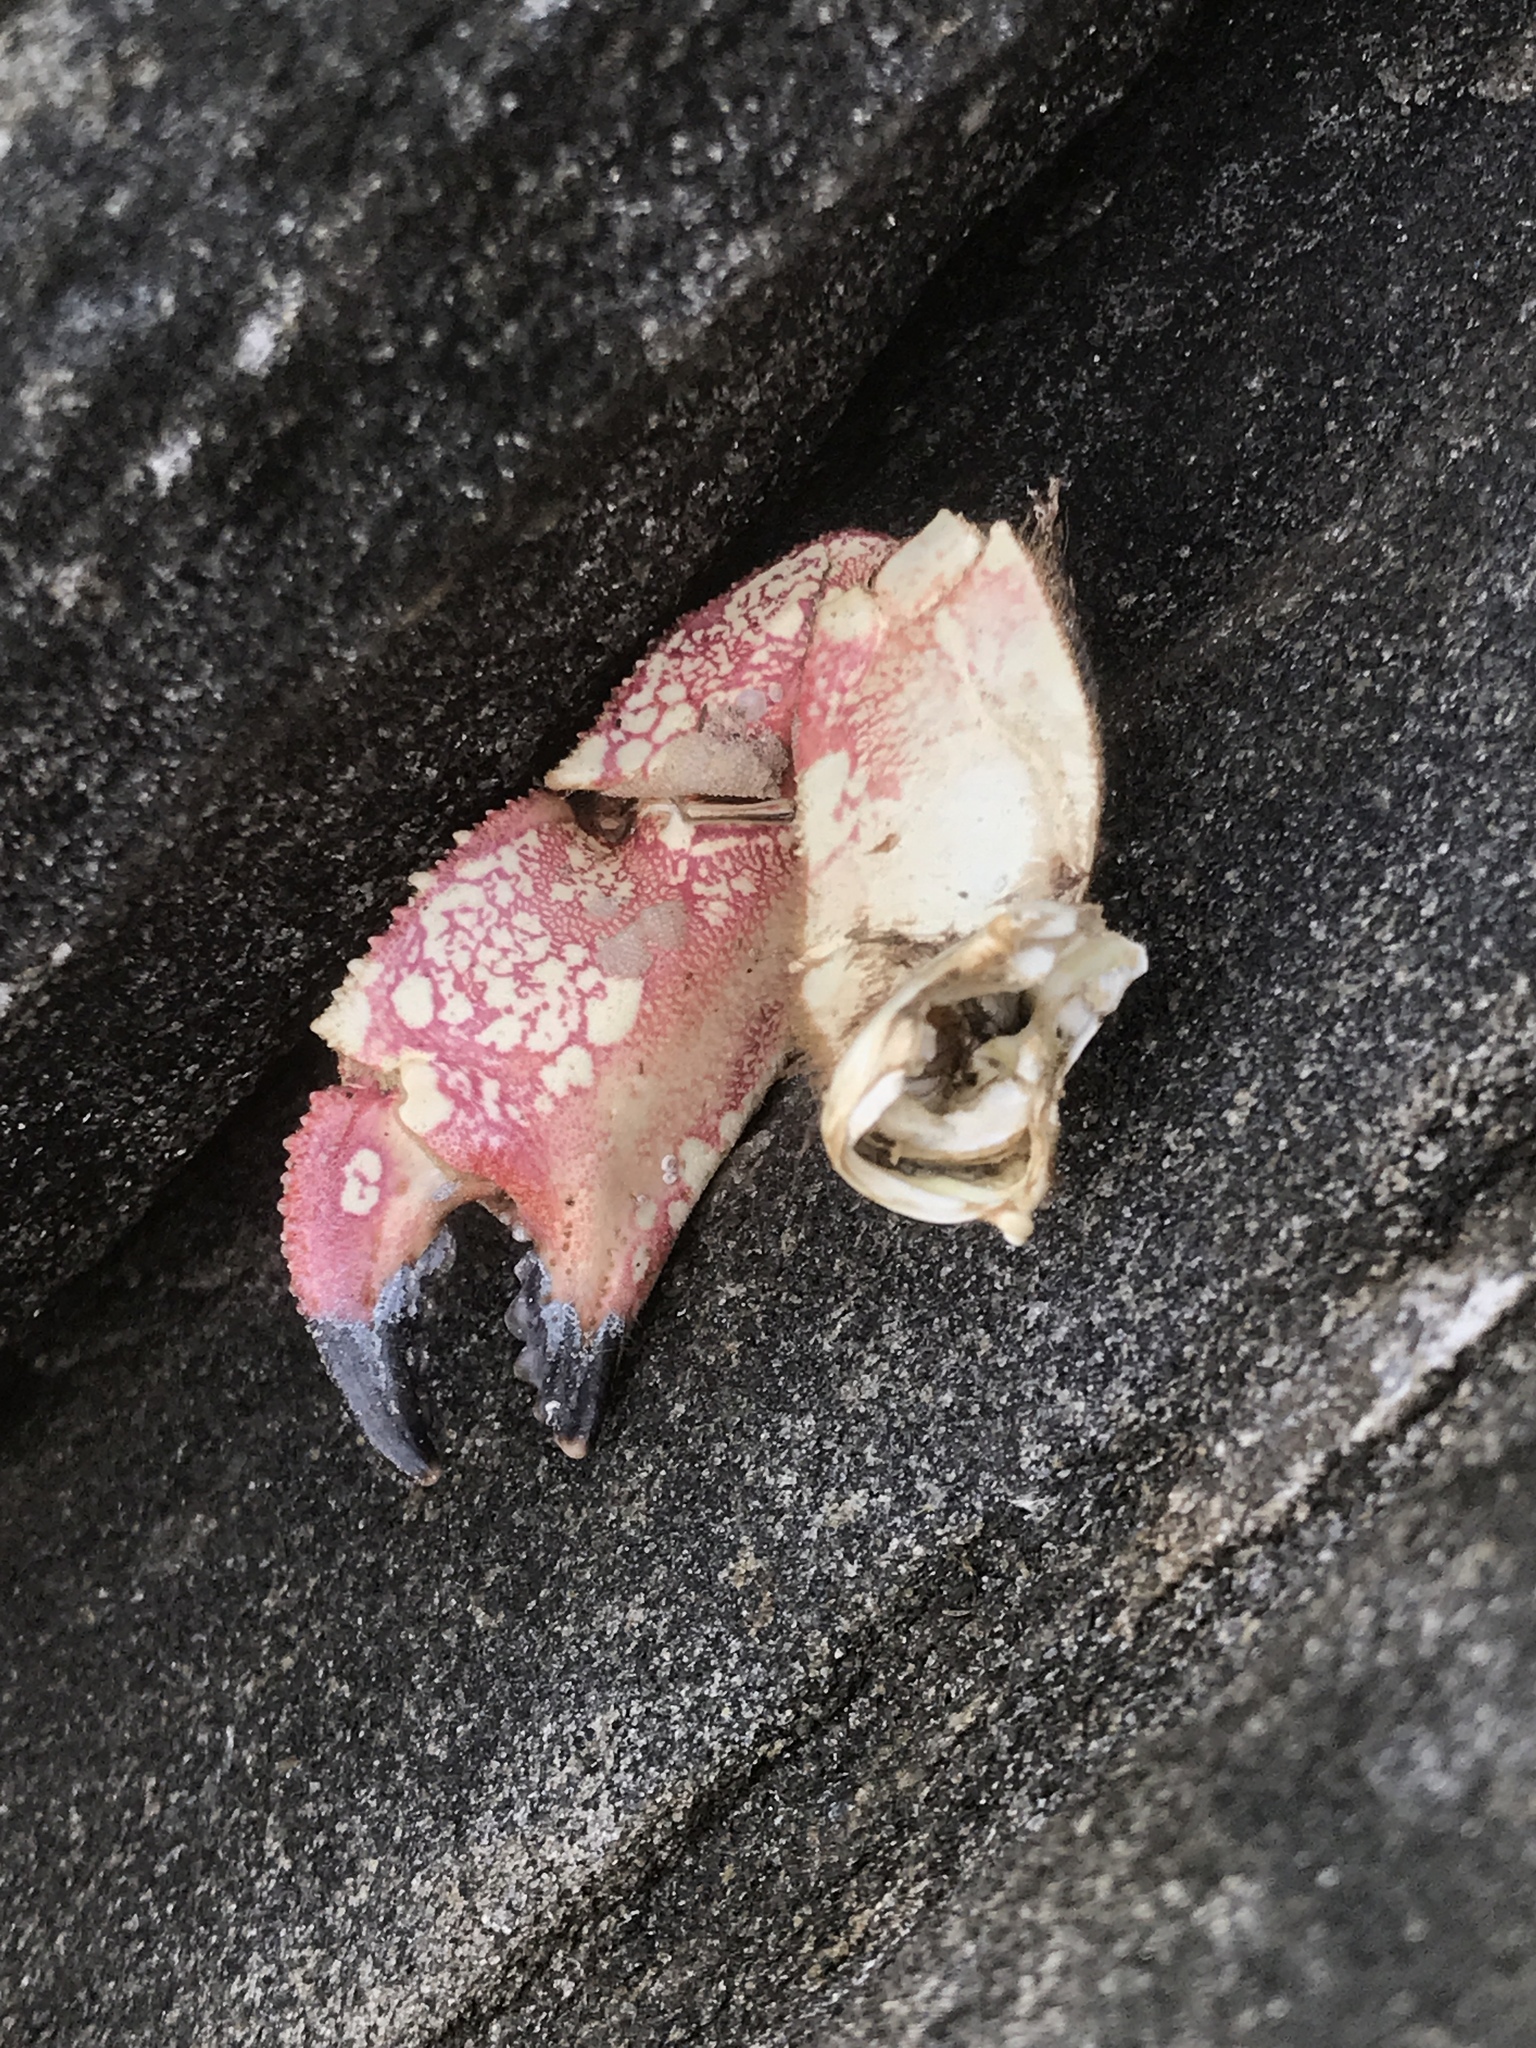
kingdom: Animalia
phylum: Arthropoda
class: Malacostraca
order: Decapoda
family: Cancridae
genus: Cancer
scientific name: Cancer
